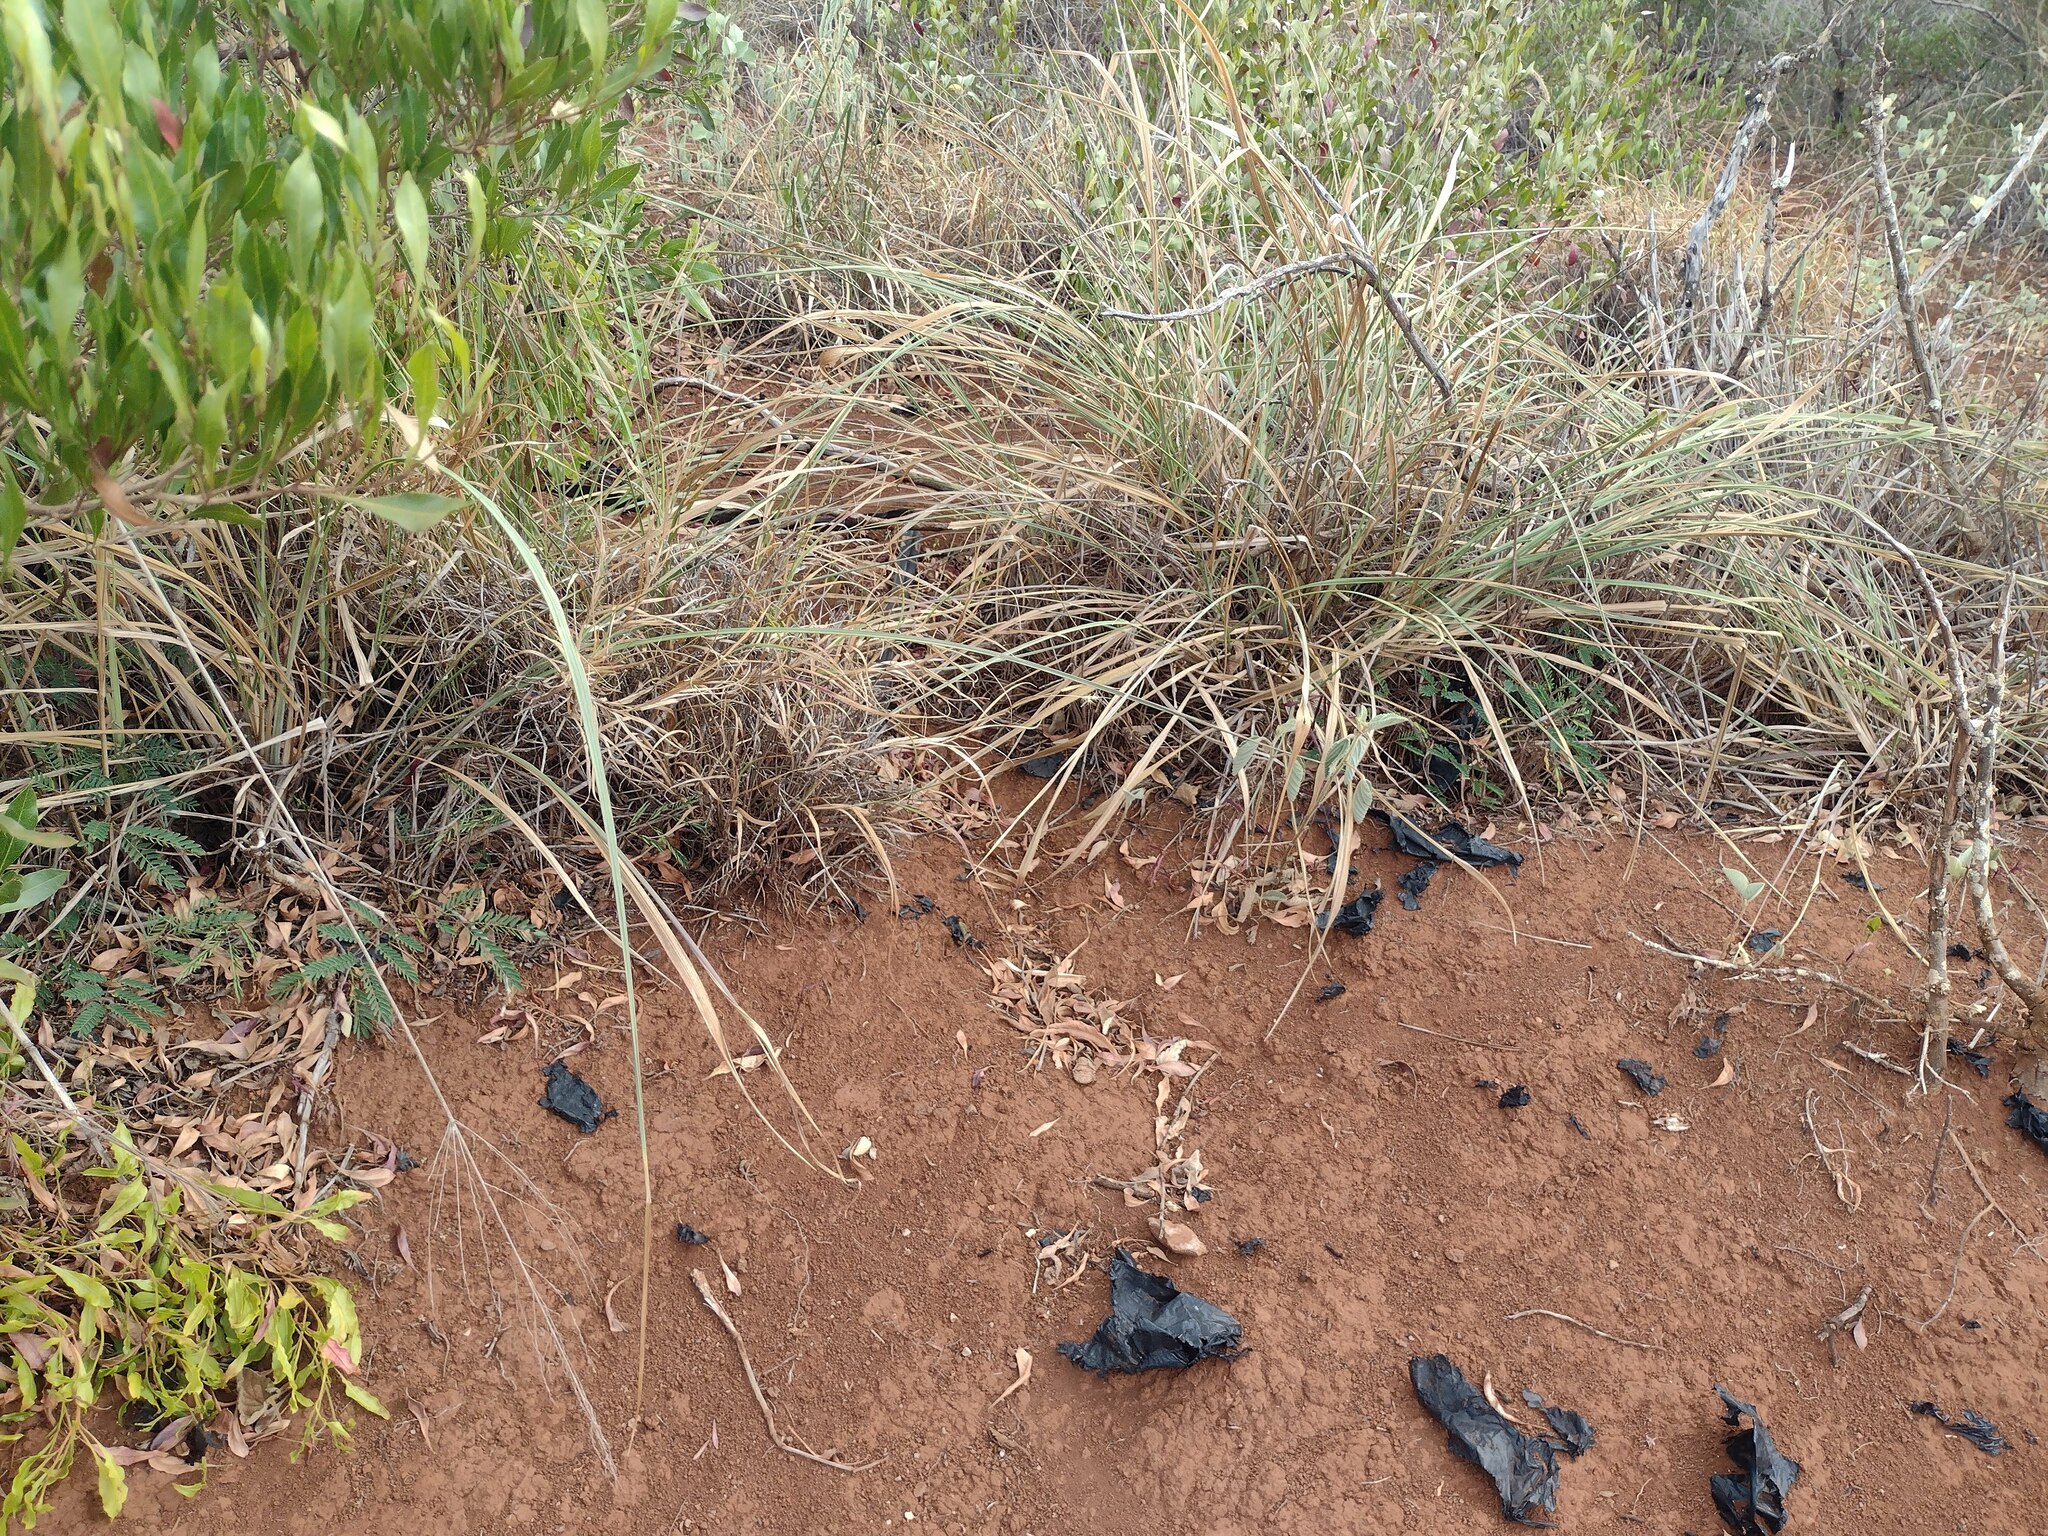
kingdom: Plantae
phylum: Tracheophyta
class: Liliopsida
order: Poales
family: Poaceae
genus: Megathyrsus
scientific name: Megathyrsus maximus
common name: Guineagrass
